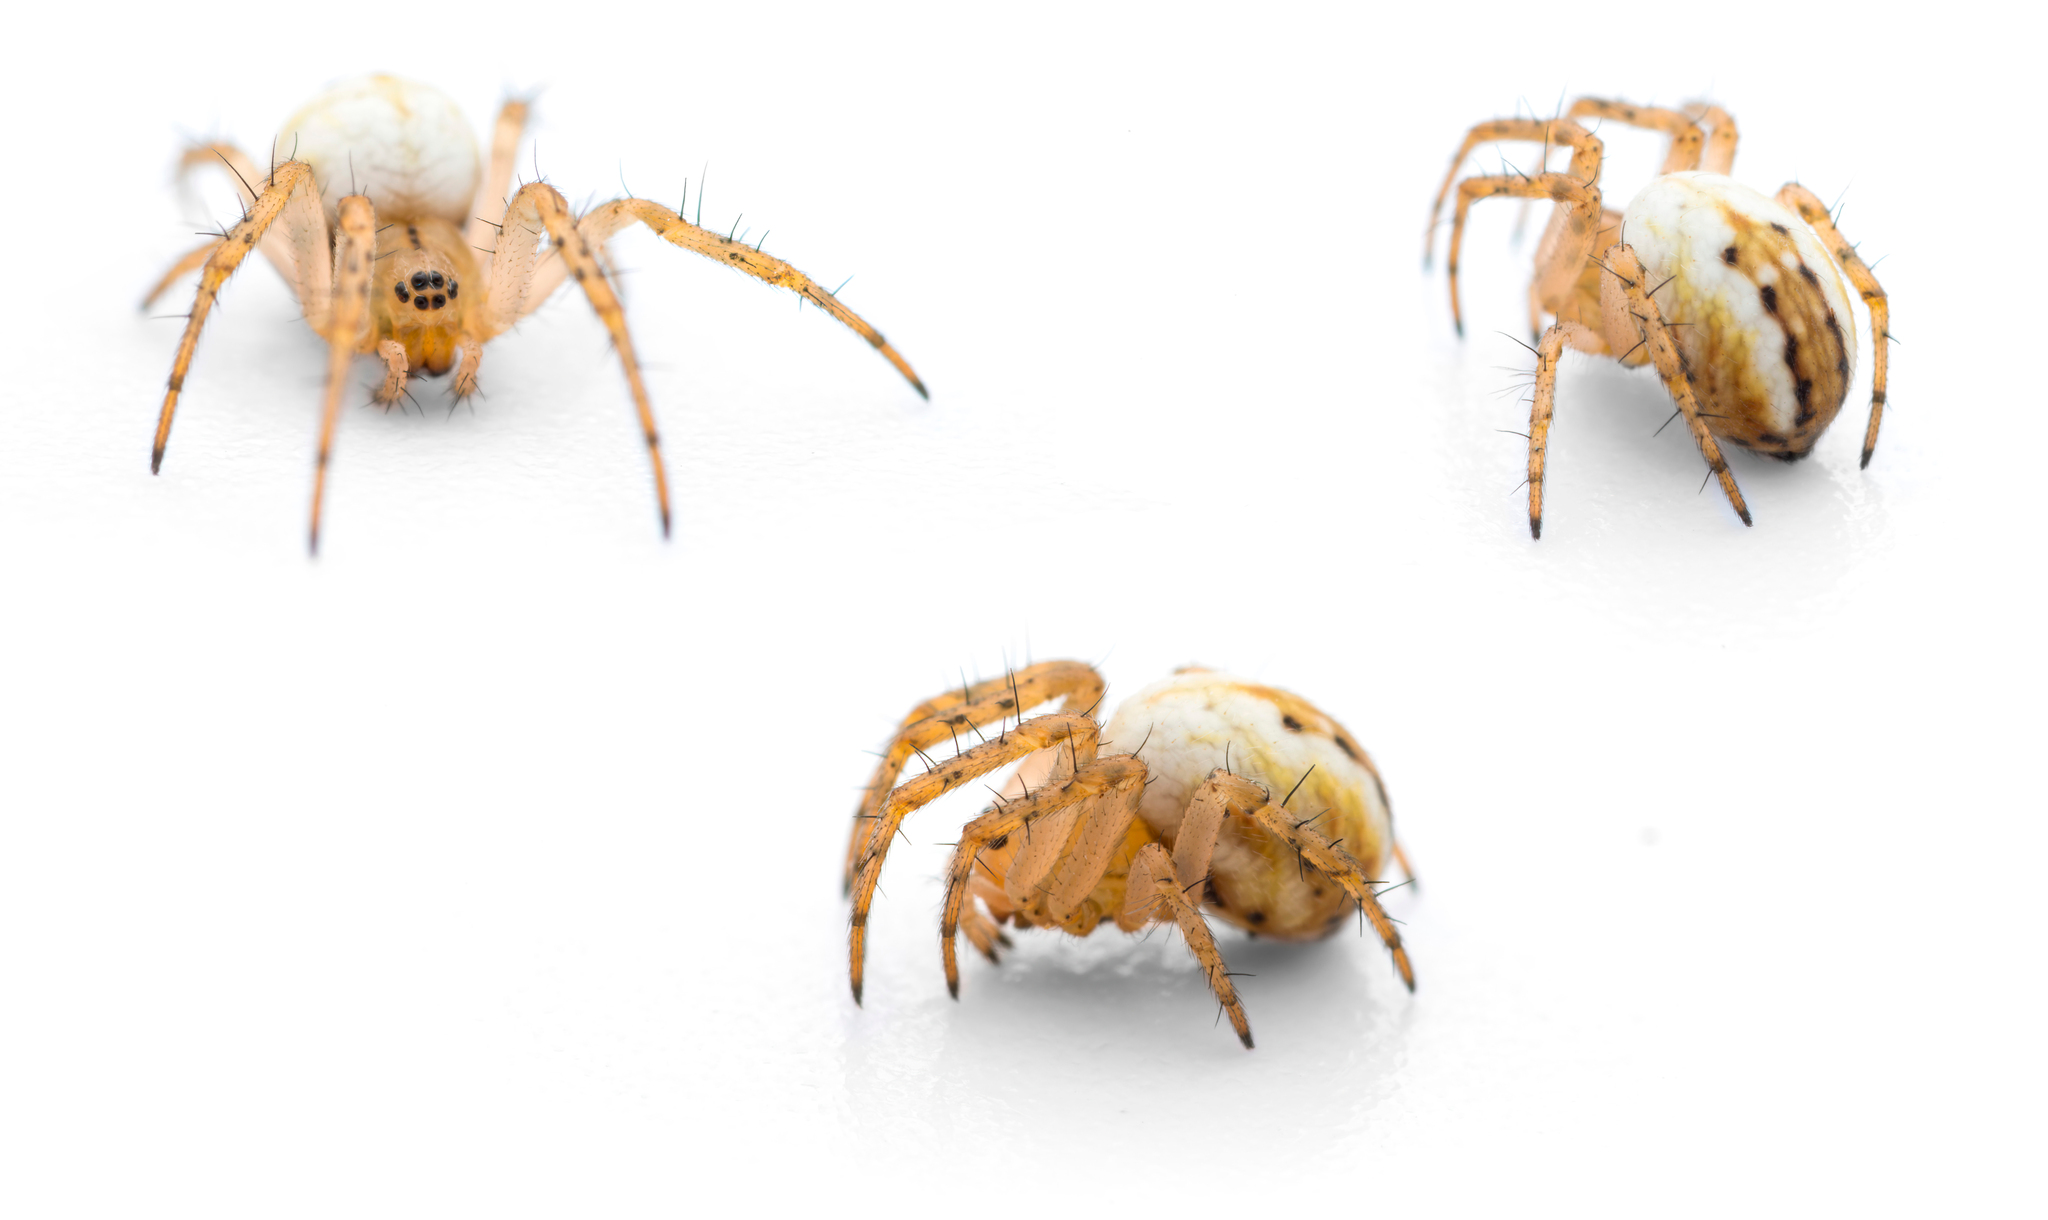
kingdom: Animalia
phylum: Arthropoda
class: Arachnida
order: Araneae
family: Araneidae
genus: Mangora
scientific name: Mangora acalypha
